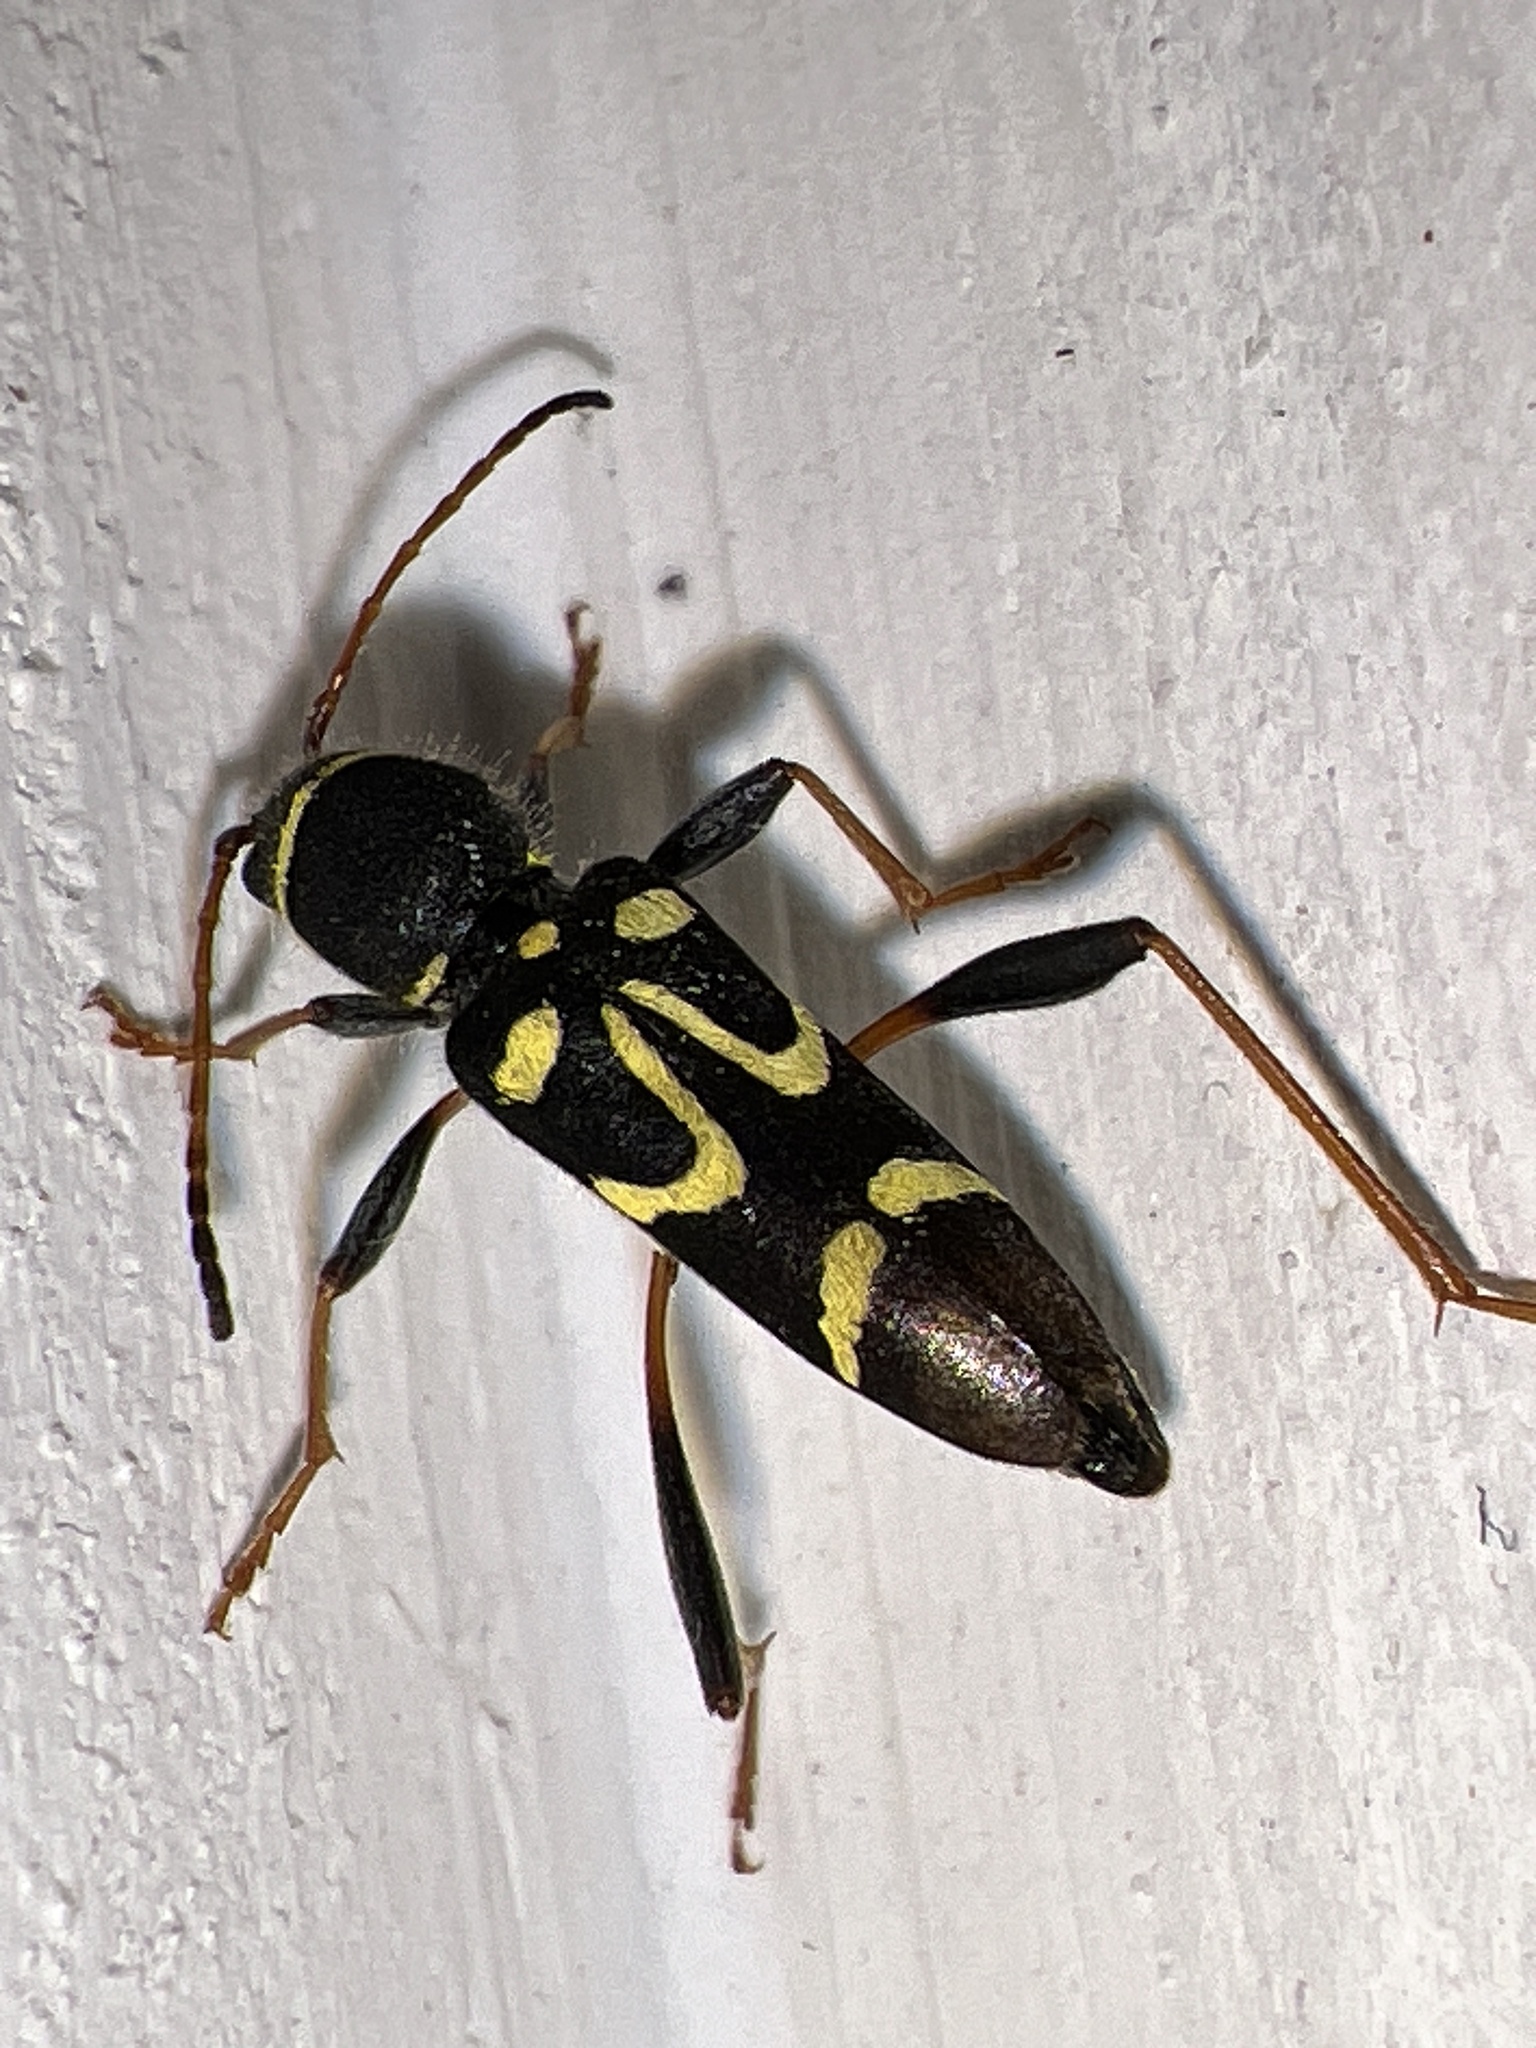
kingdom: Animalia
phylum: Arthropoda
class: Insecta
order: Coleoptera
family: Cerambycidae
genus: Clytus
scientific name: Clytus ruricola
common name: Round-necked longhorn beetle
